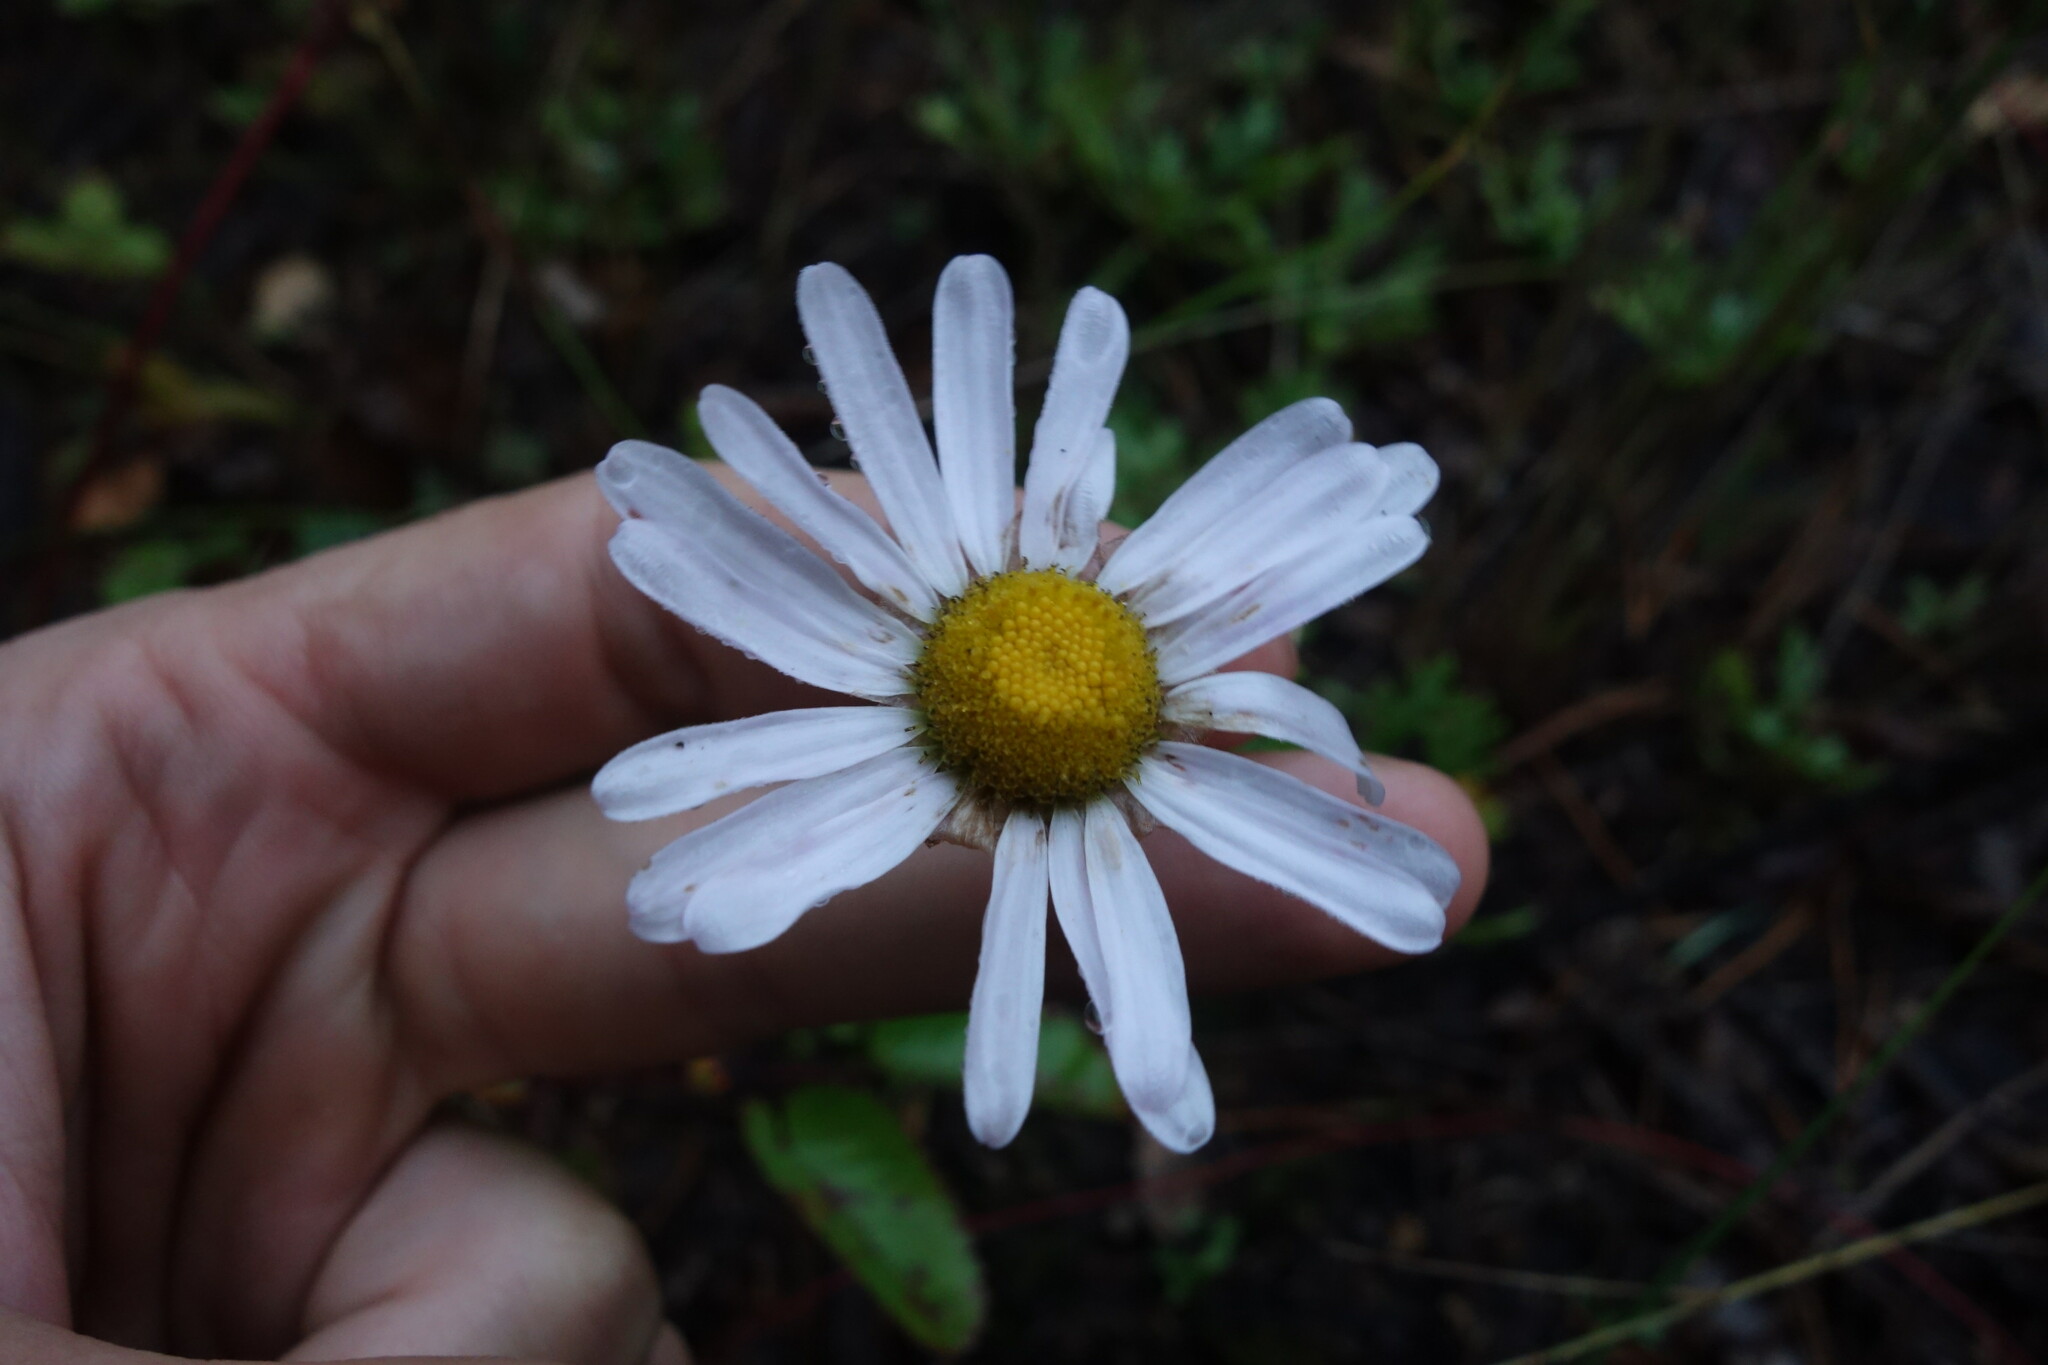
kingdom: Plantae
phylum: Tracheophyta
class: Magnoliopsida
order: Asterales
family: Asteraceae
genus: Chrysanthemum
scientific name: Chrysanthemum zawadzkii
